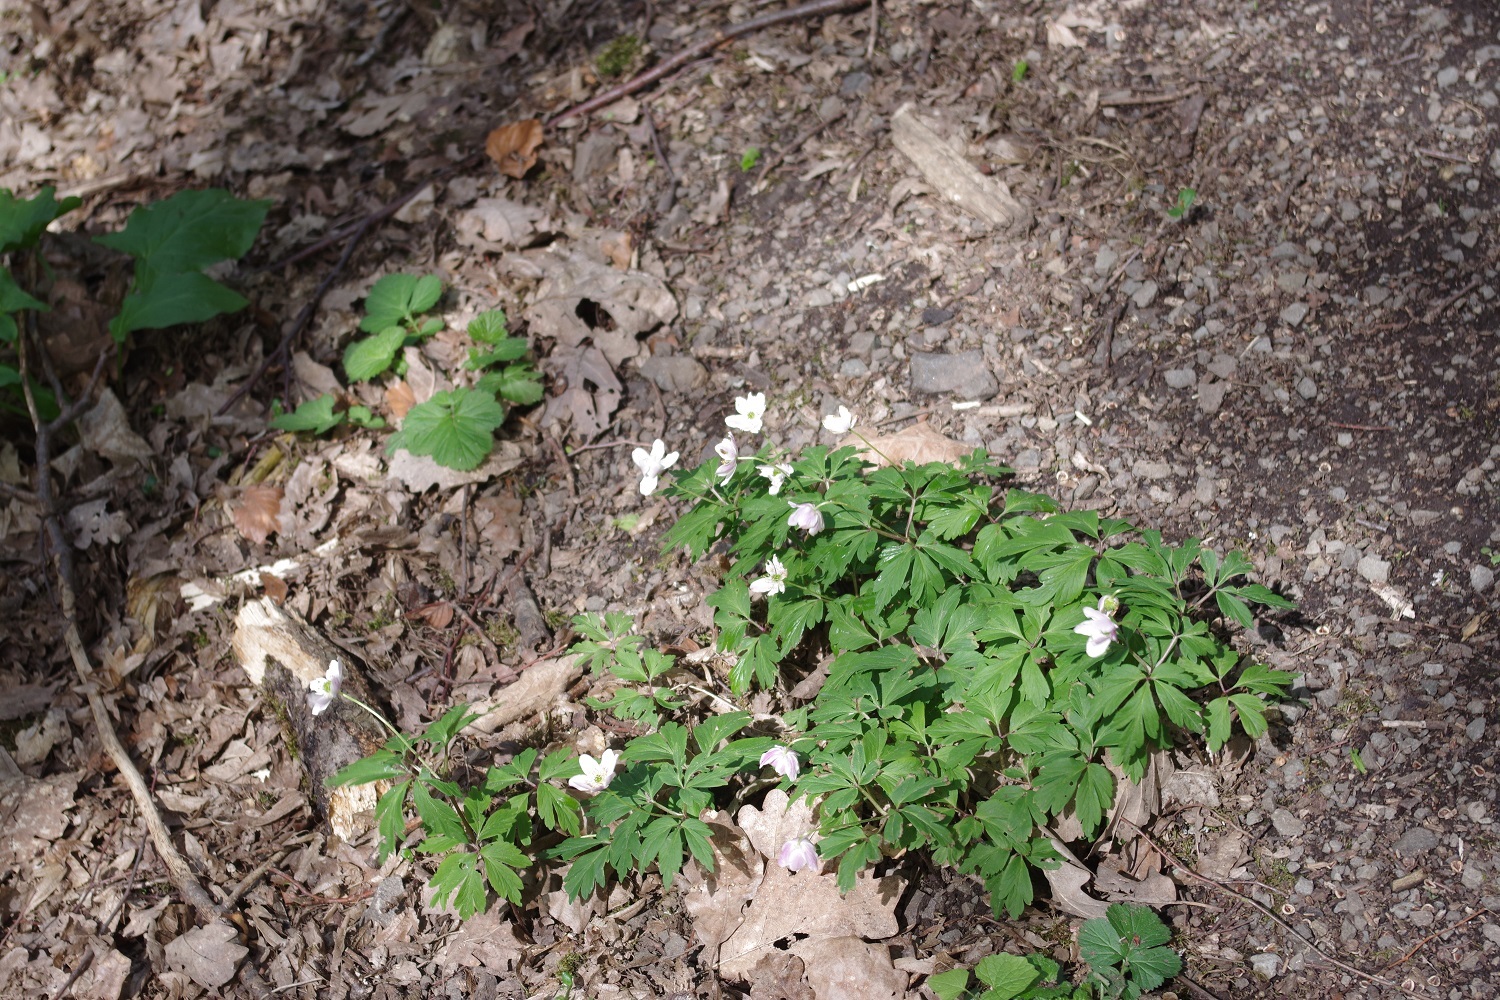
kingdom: Plantae
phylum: Tracheophyta
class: Magnoliopsida
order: Ranunculales
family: Ranunculaceae
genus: Anemone
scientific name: Anemone nemorosa
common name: Wood anemone
